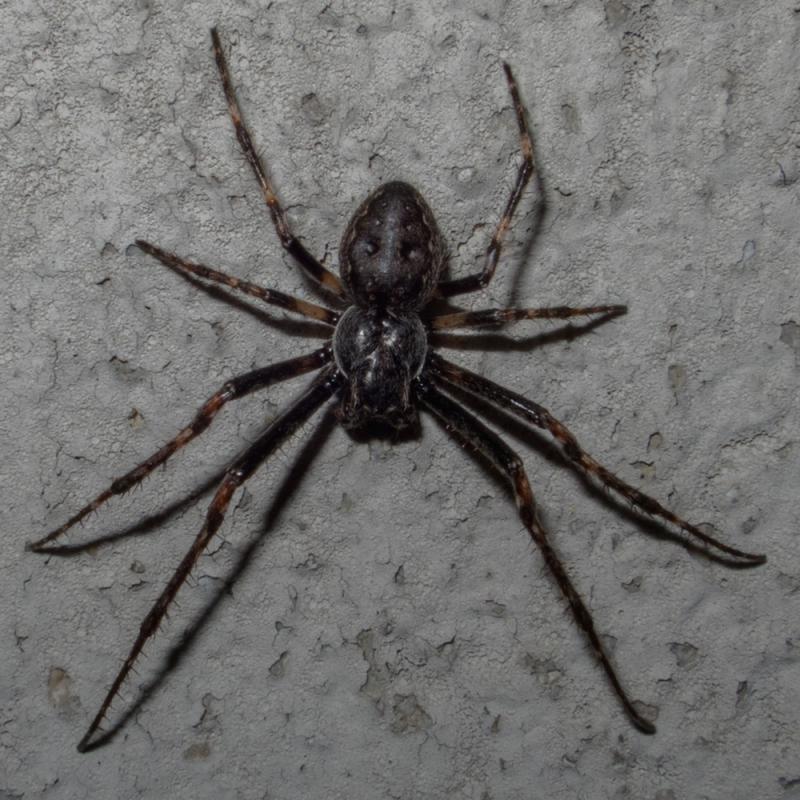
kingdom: Animalia
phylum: Arthropoda
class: Arachnida
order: Araneae
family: Araneidae
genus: Nuctenea
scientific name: Nuctenea umbratica
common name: Toad spider
